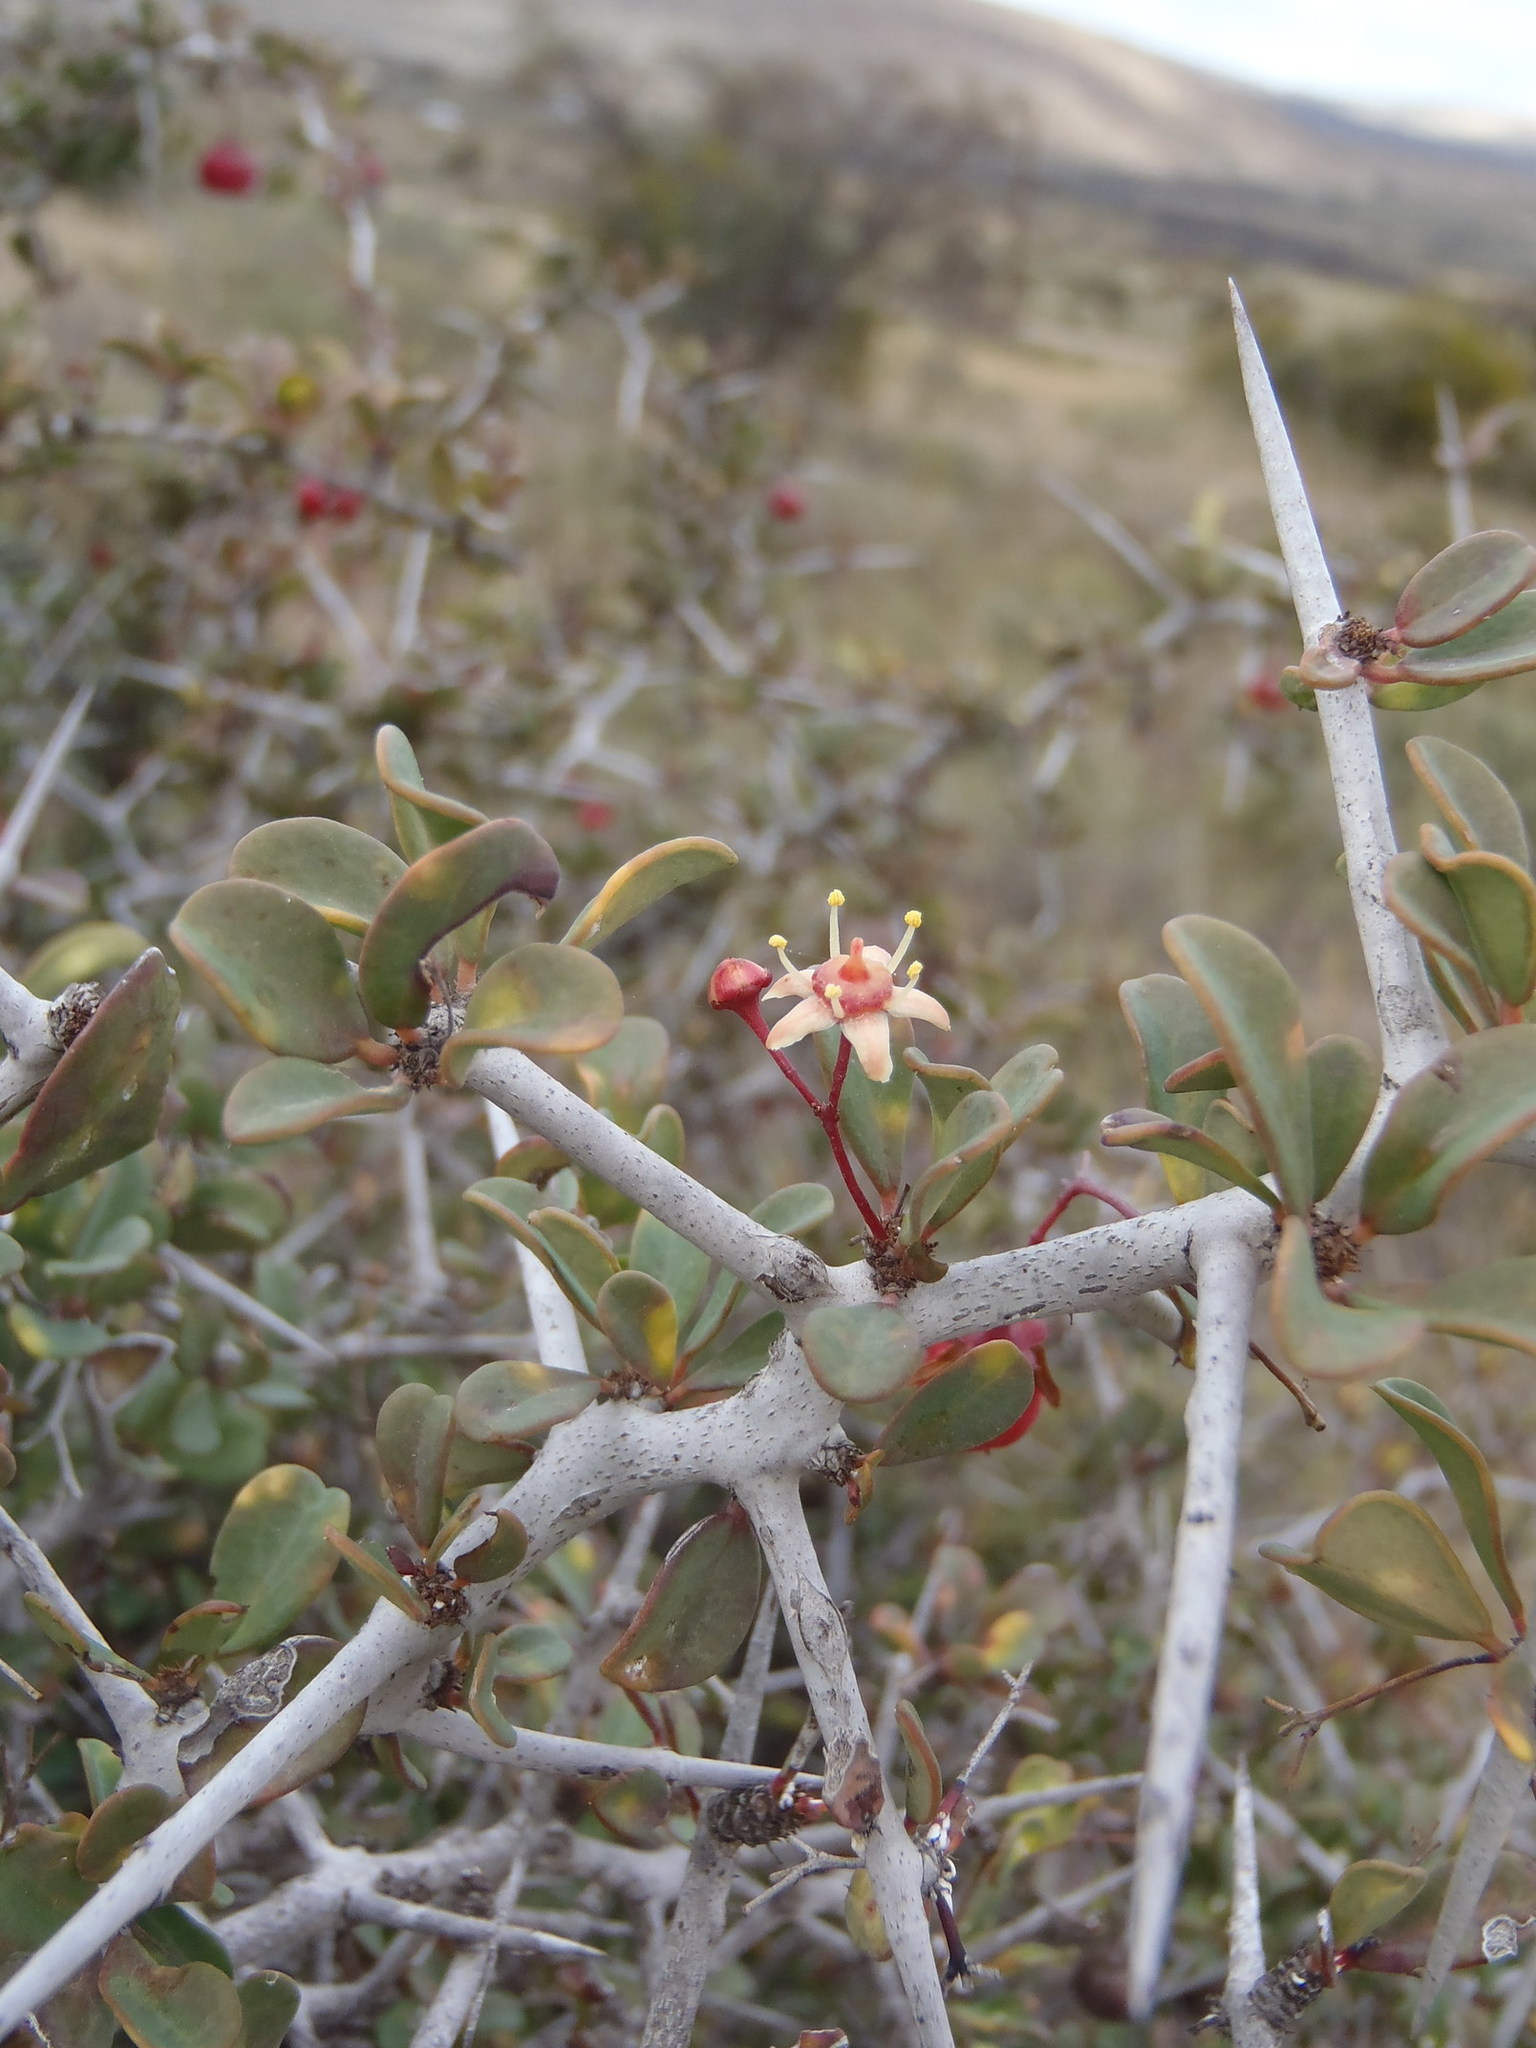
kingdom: Plantae
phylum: Tracheophyta
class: Magnoliopsida
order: Celastrales
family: Celastraceae
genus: Putterlickia
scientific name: Putterlickia pyracantha
